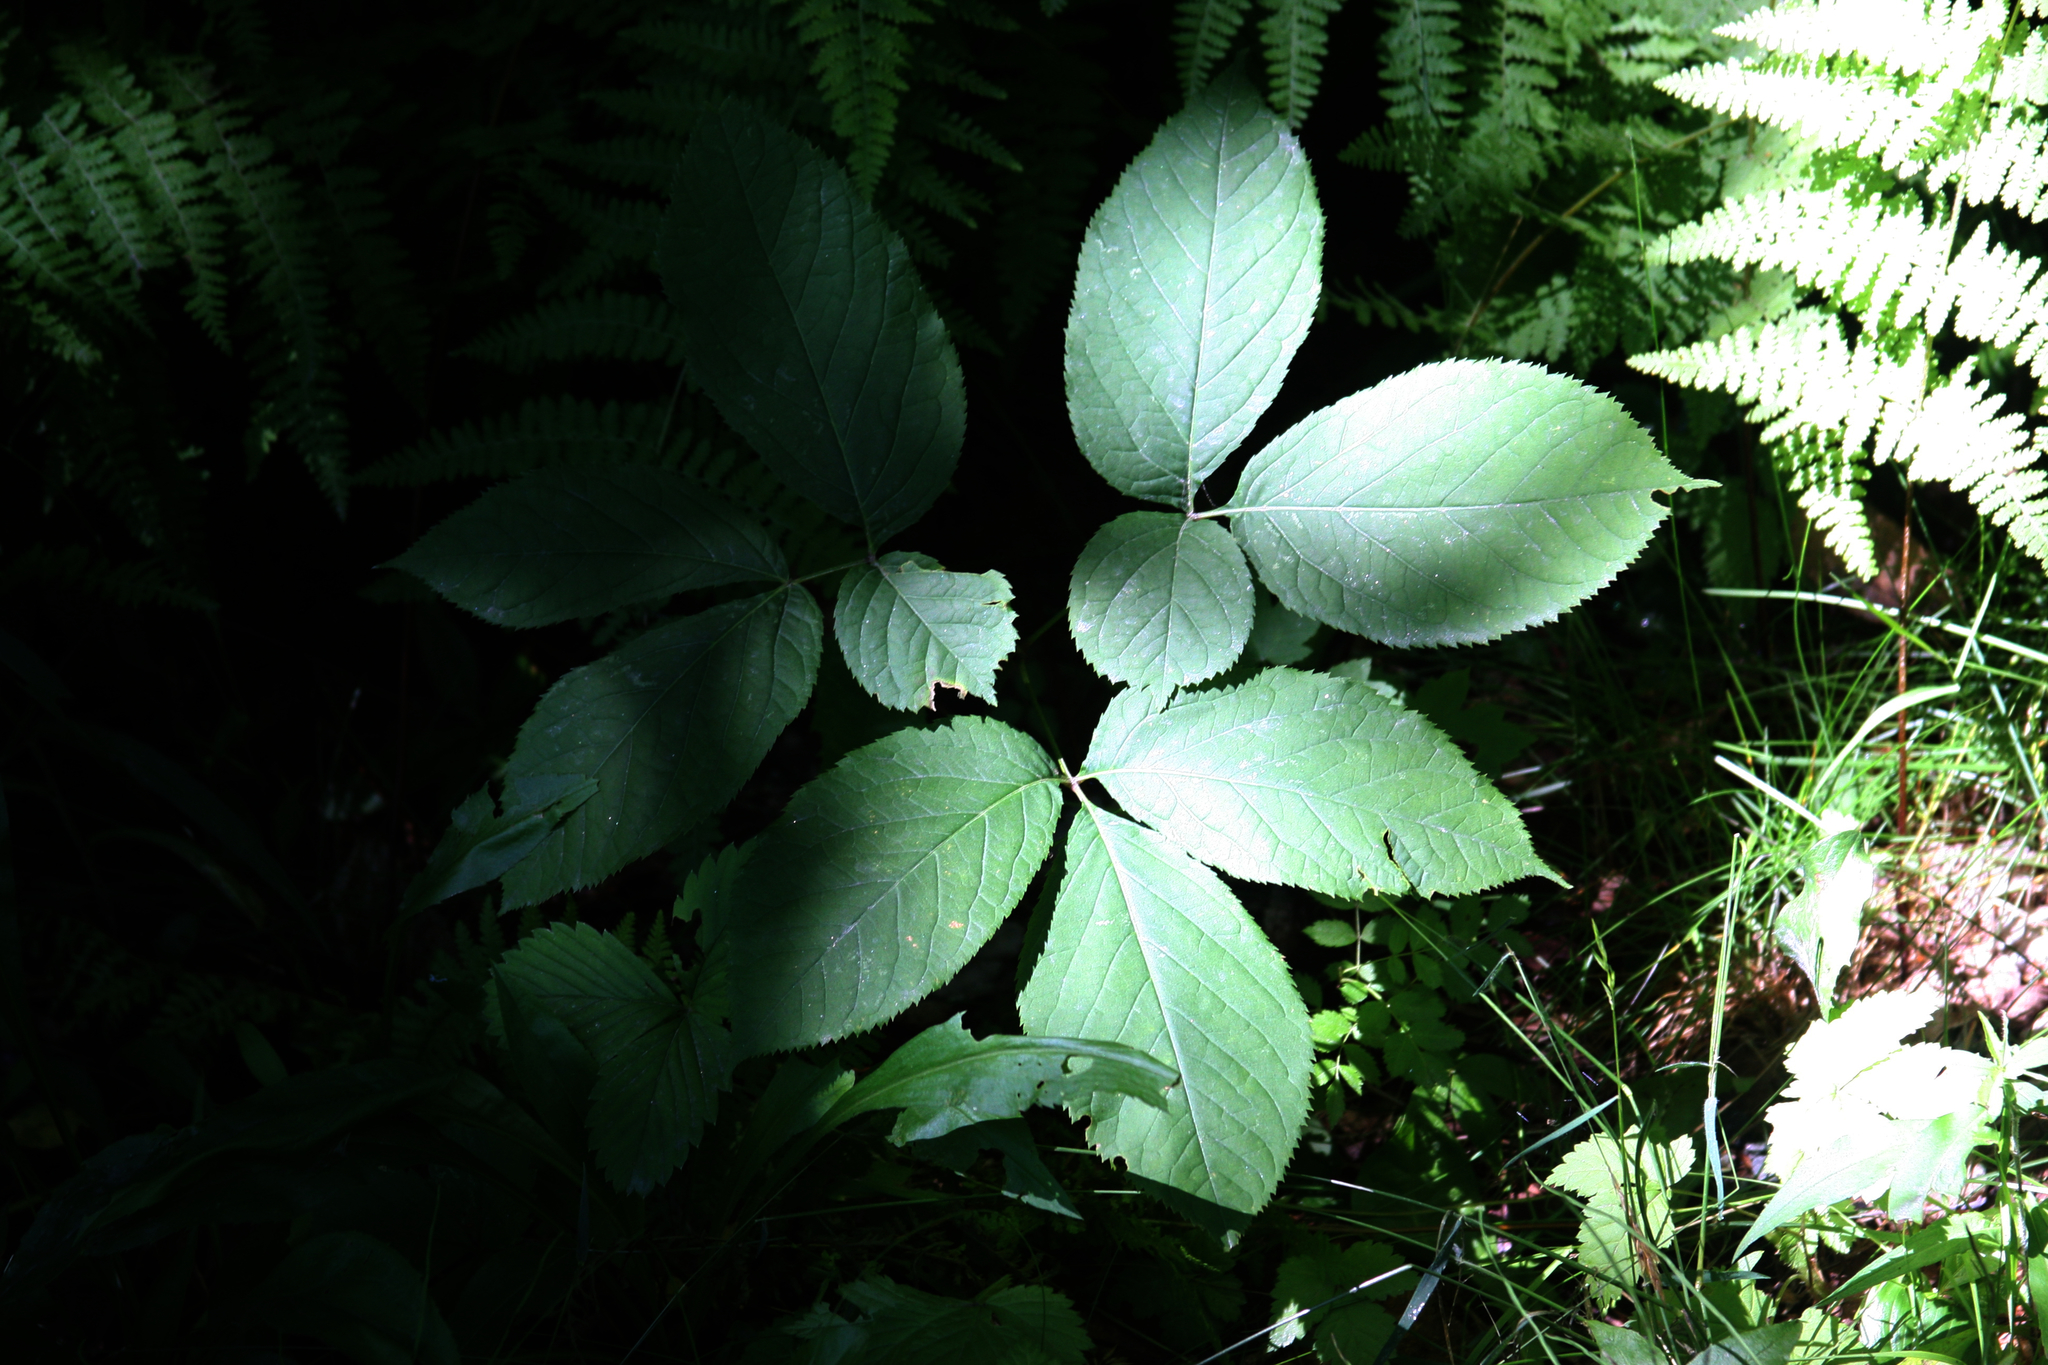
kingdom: Plantae
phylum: Tracheophyta
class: Magnoliopsida
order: Apiales
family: Araliaceae
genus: Aralia
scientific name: Aralia nudicaulis
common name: Wild sarsaparilla
